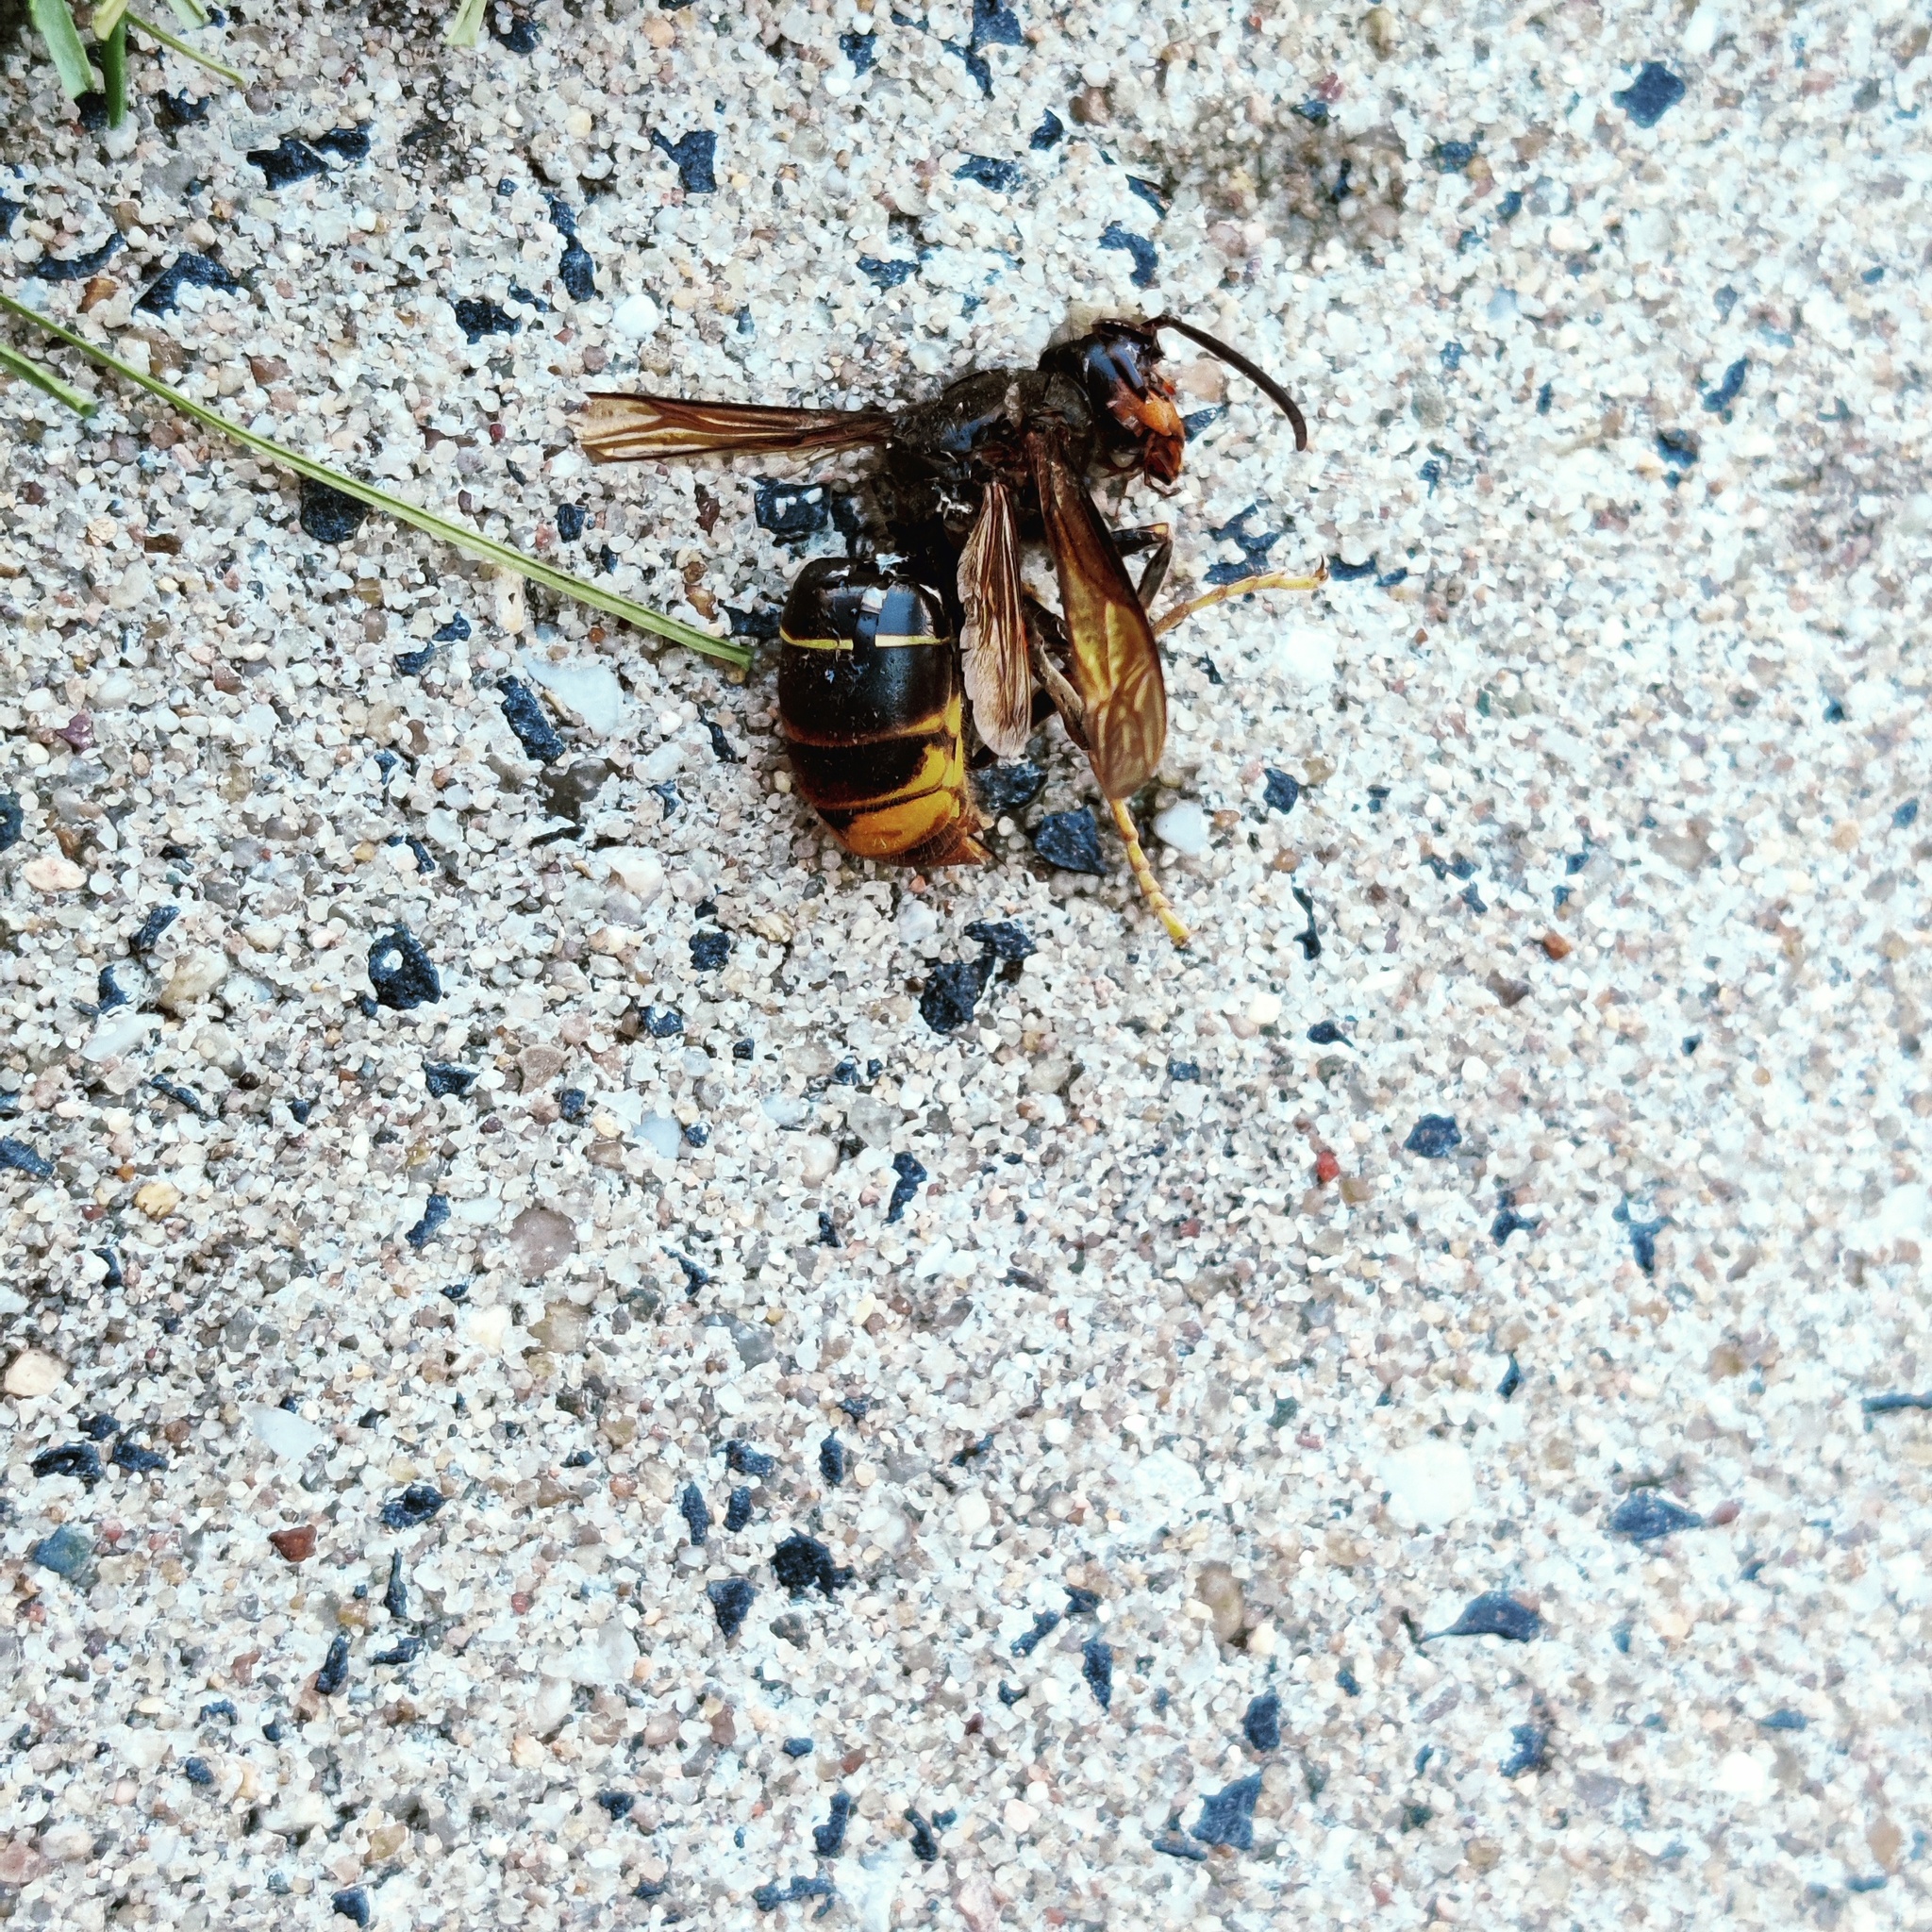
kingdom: Animalia
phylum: Arthropoda
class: Insecta
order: Hymenoptera
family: Vespidae
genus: Vespa
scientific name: Vespa velutina
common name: Asian hornet
